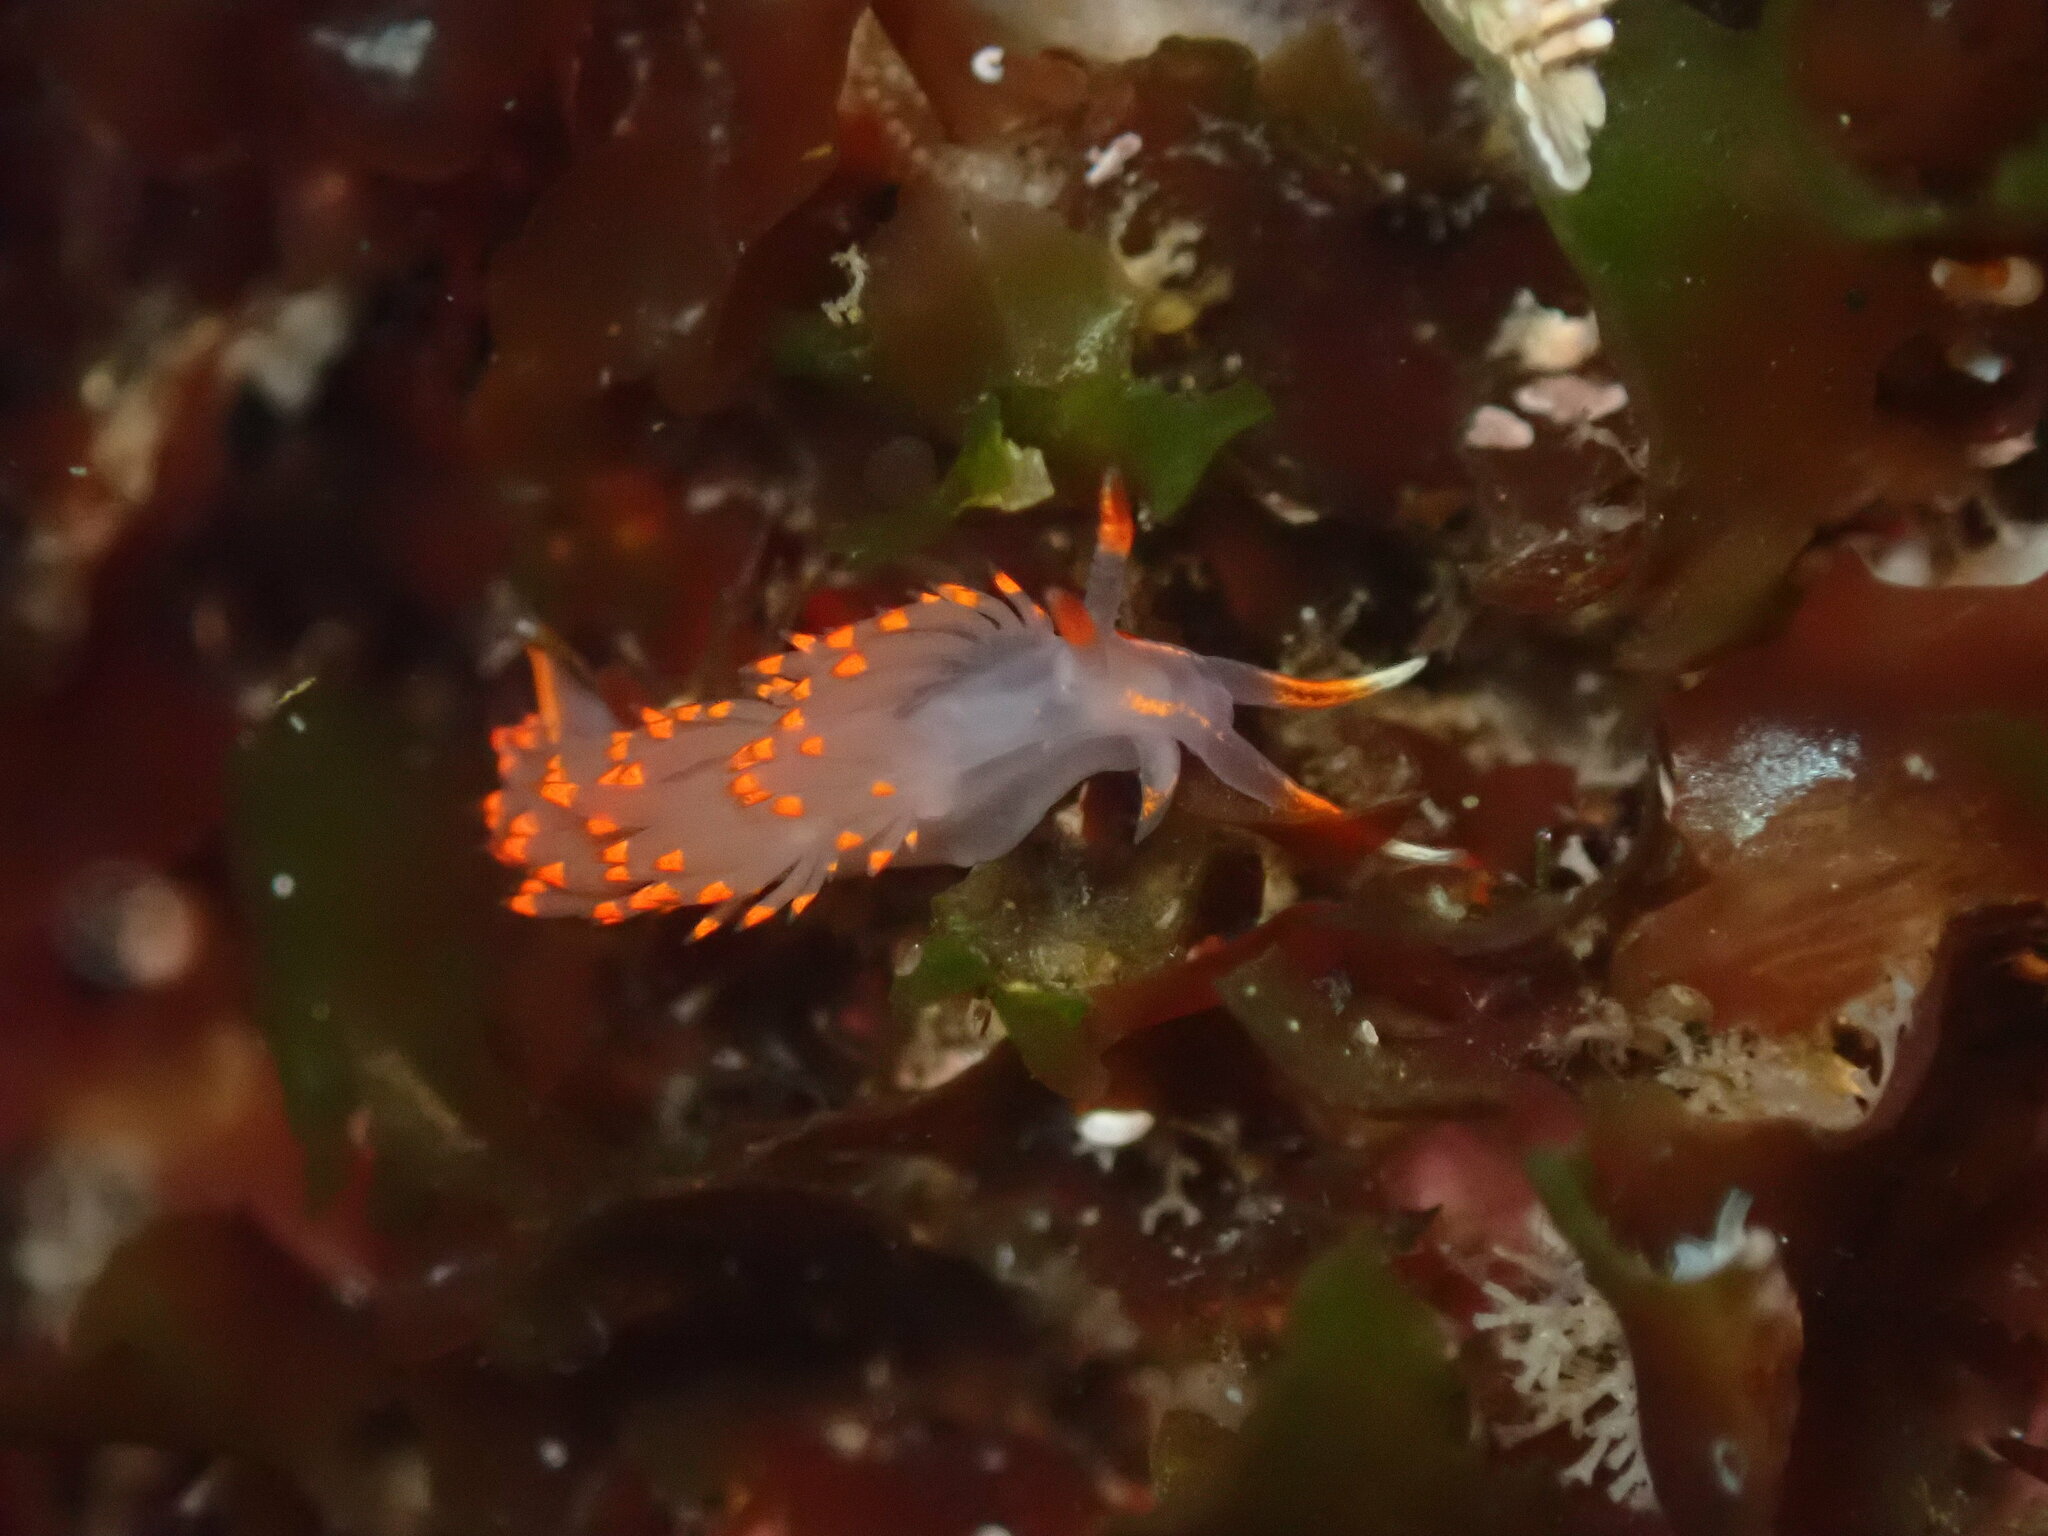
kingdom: Animalia
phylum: Mollusca
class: Gastropoda
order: Nudibranchia
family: Facelinidae
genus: Austraeolis
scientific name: Austraeolis stearnsi
